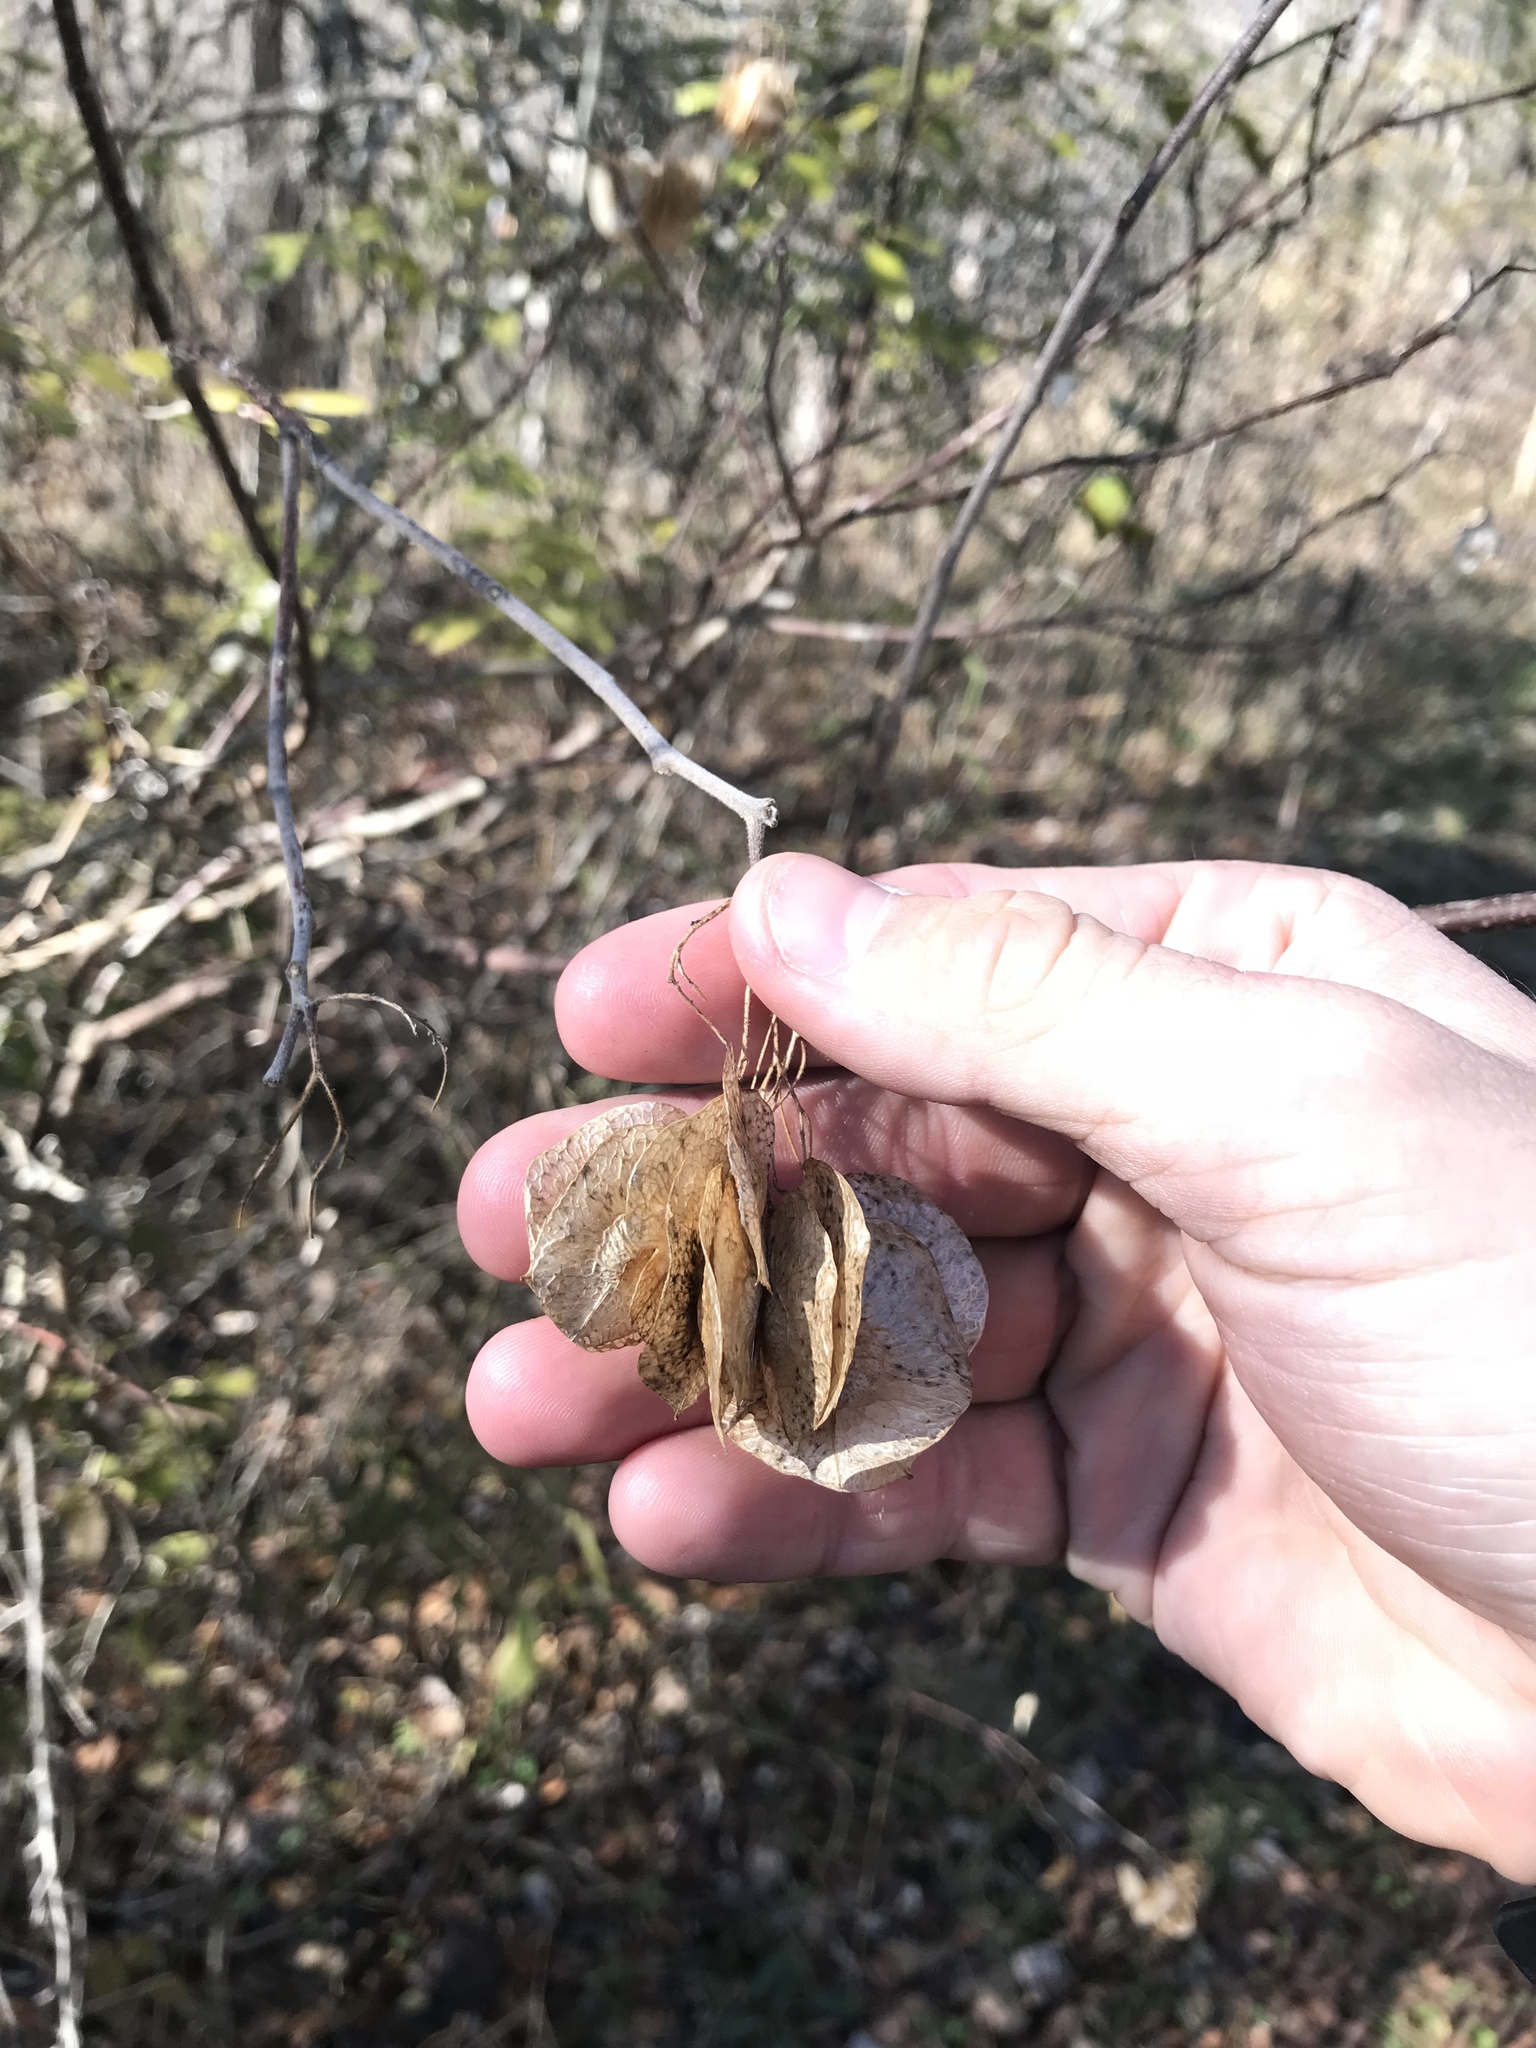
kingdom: Plantae
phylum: Tracheophyta
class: Magnoliopsida
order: Sapindales
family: Rutaceae
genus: Ptelea
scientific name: Ptelea trifoliata
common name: Common hop-tree
